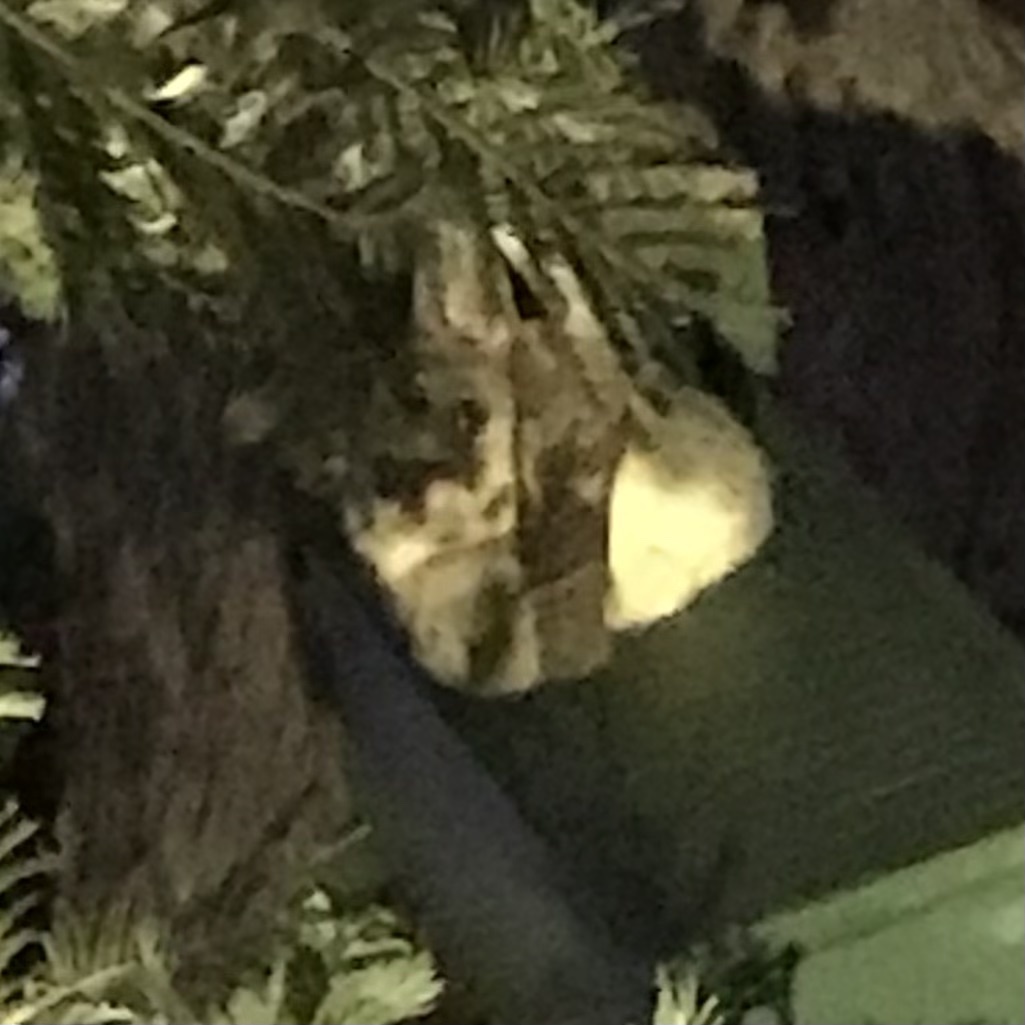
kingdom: Animalia
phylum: Chordata
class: Mammalia
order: Diprotodontia
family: Phalangeridae
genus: Trichosurus
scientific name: Trichosurus vulpecula
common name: Common brushtail
